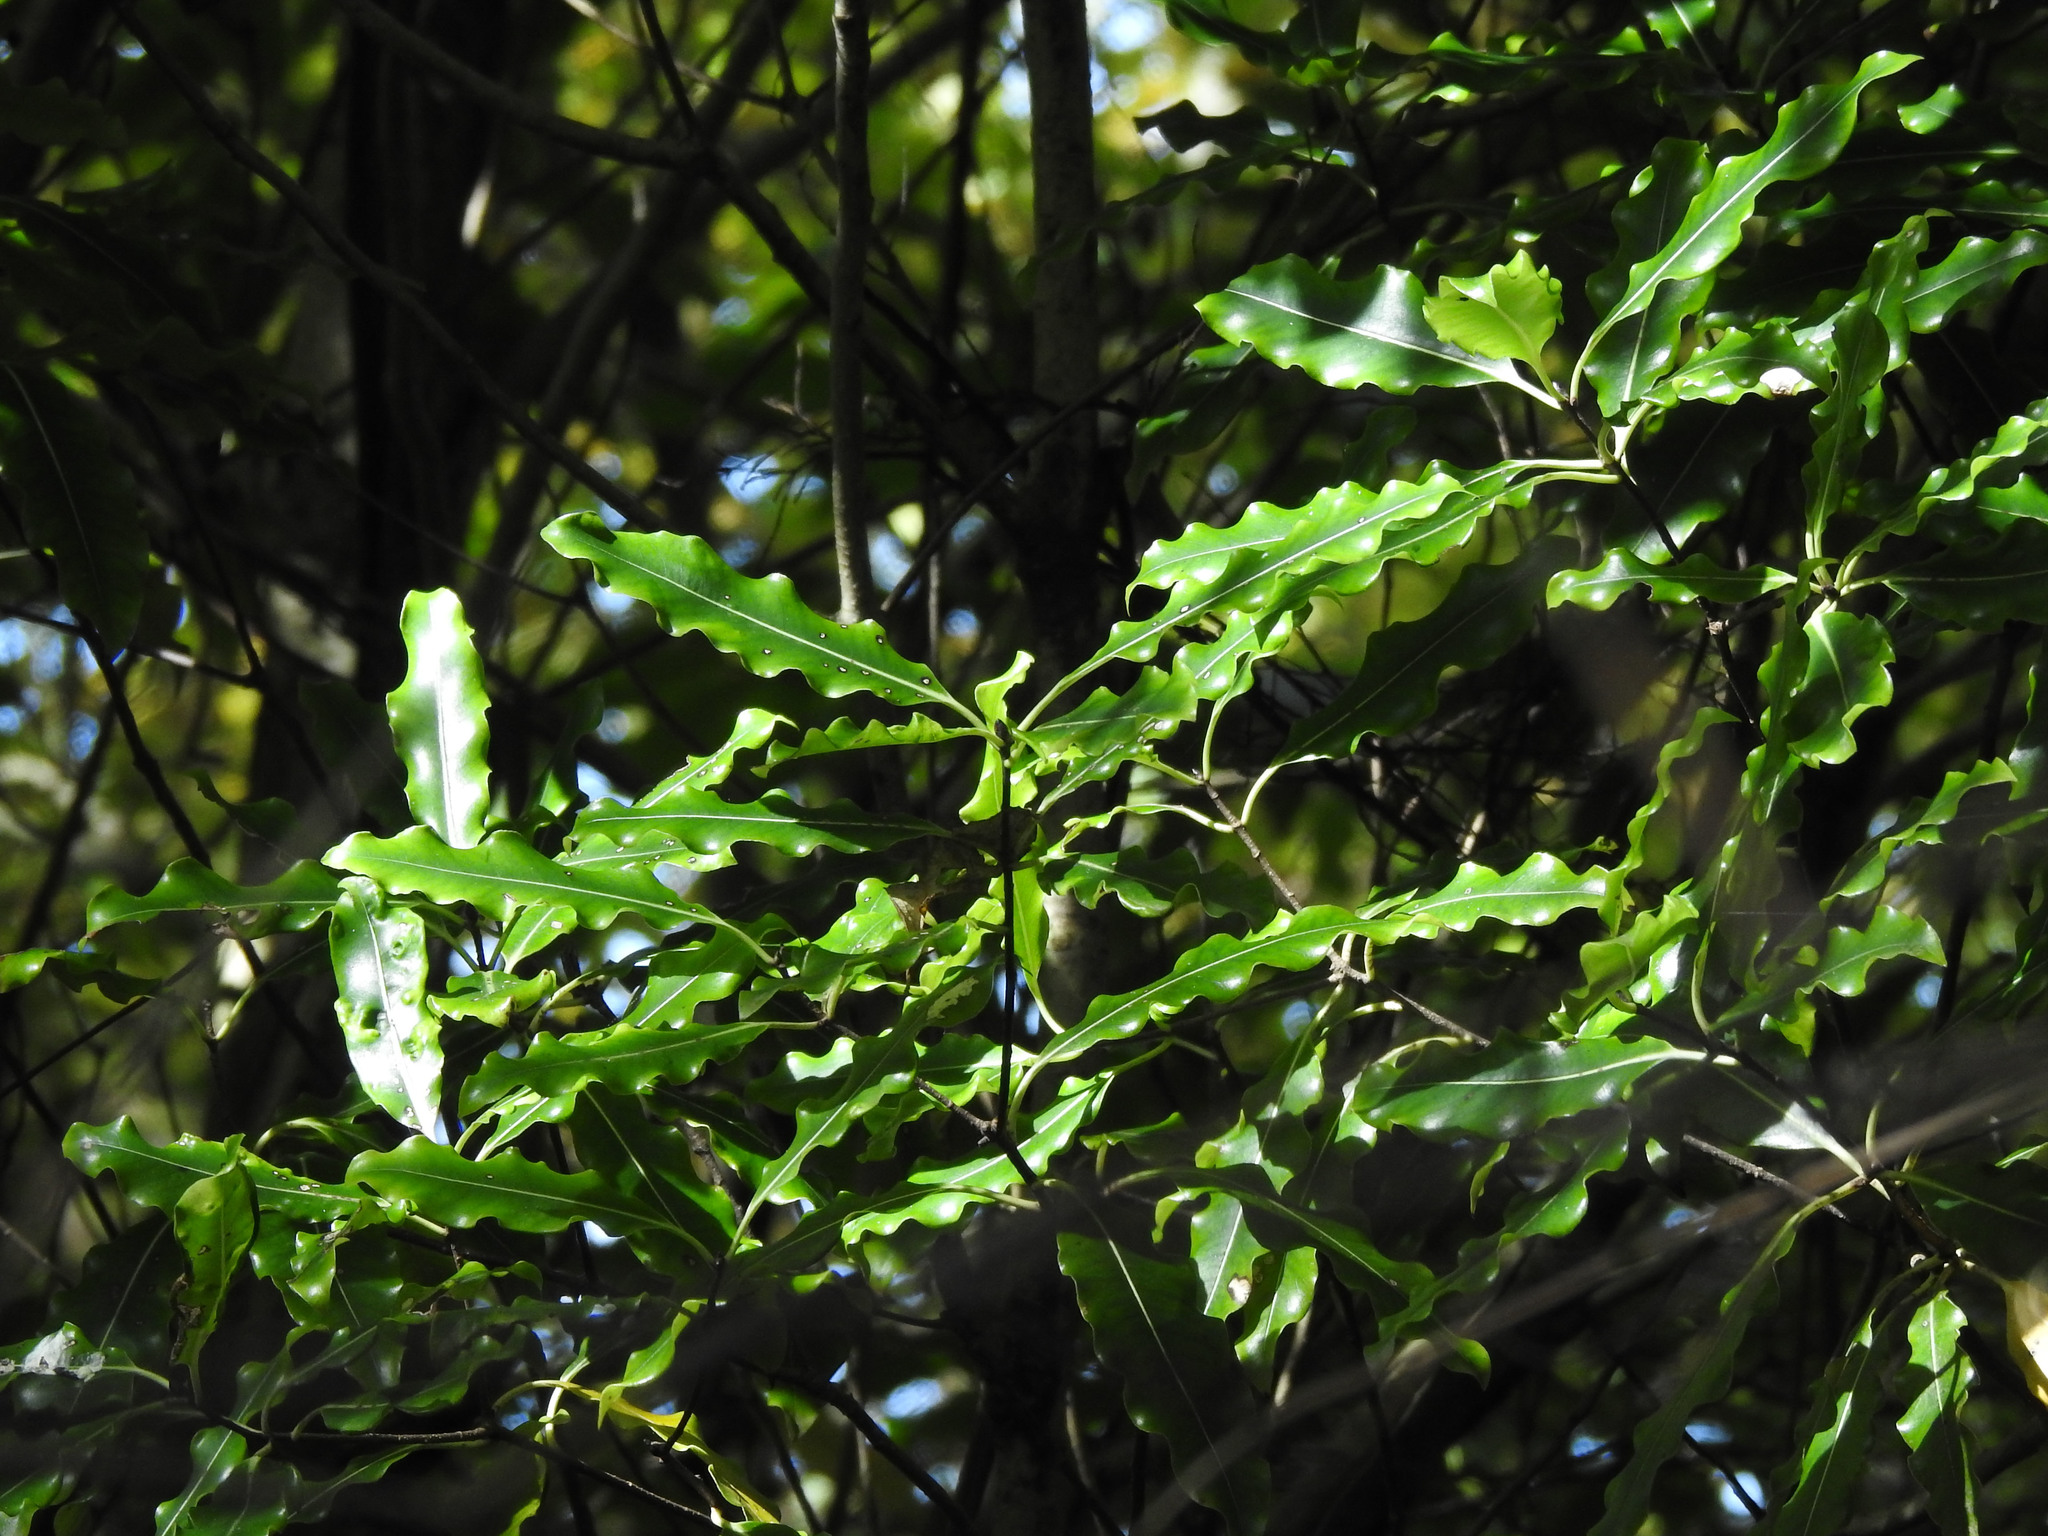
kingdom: Plantae
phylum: Tracheophyta
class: Magnoliopsida
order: Apiales
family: Pittosporaceae
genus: Pittosporum
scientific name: Pittosporum eugenioides
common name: Lemonwood
